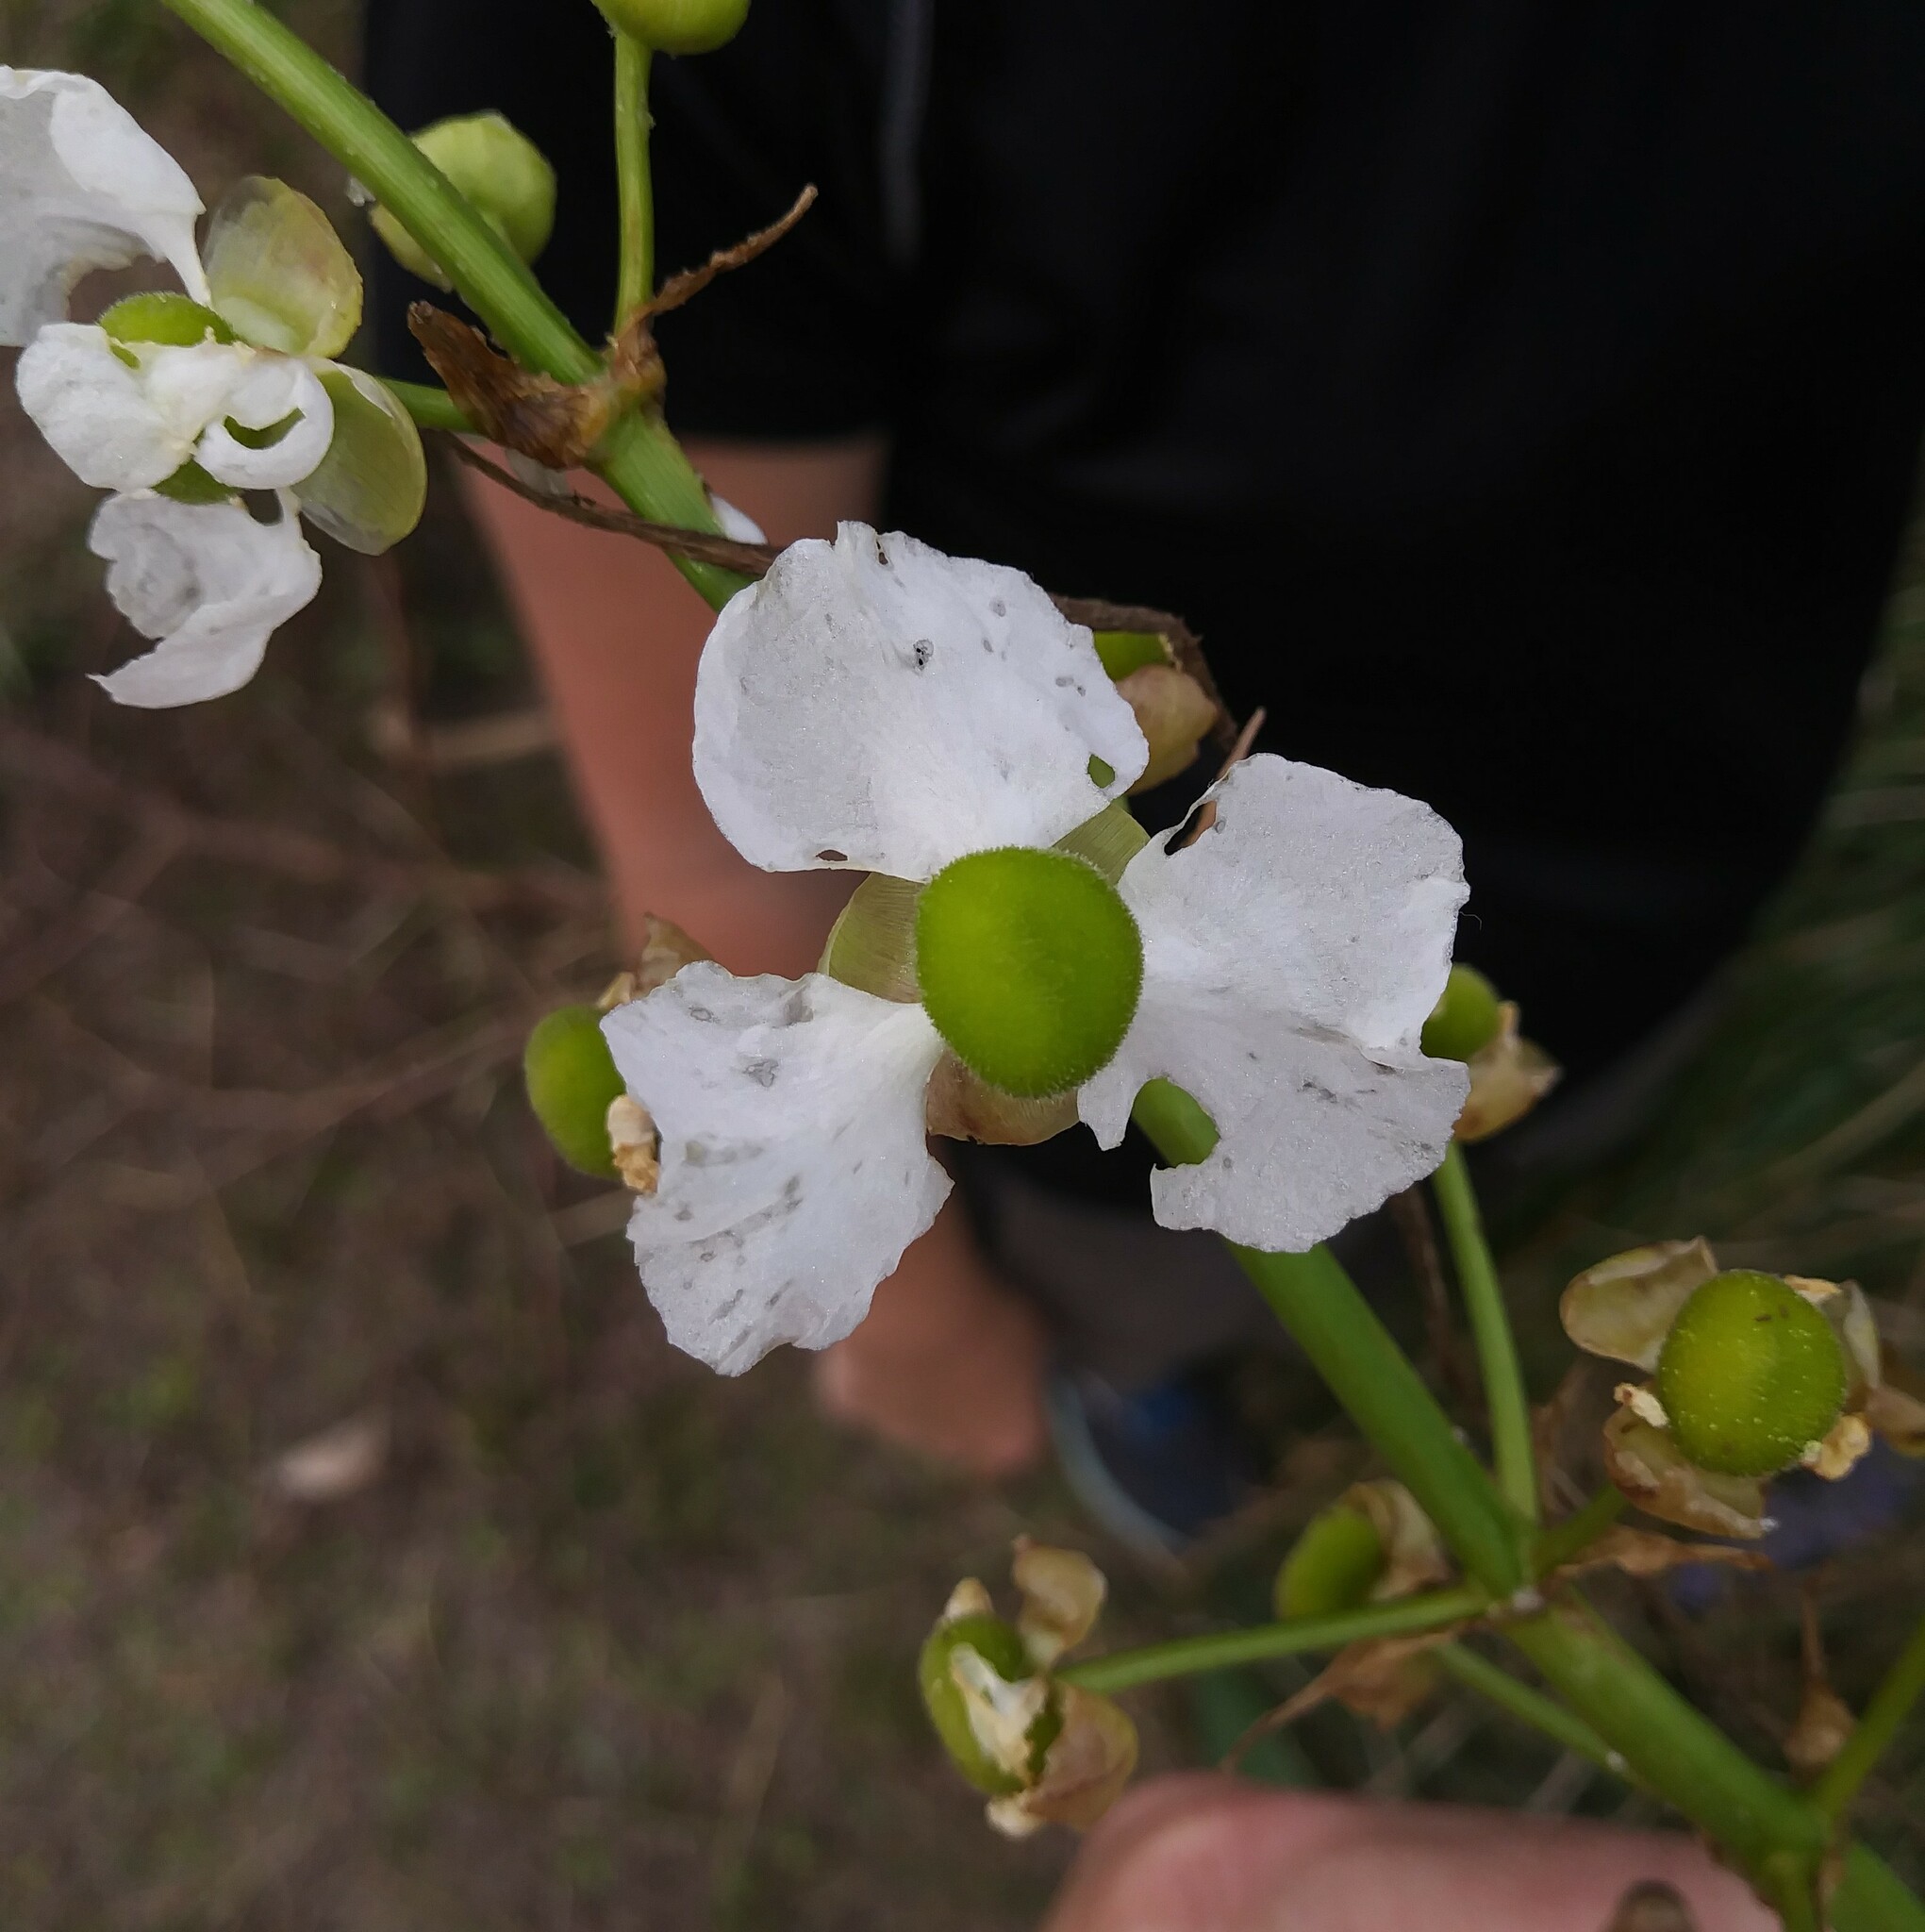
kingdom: Plantae
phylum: Tracheophyta
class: Liliopsida
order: Alismatales
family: Alismataceae
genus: Sagittaria
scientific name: Sagittaria lancifolia
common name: Lance-leaf arrowhead
